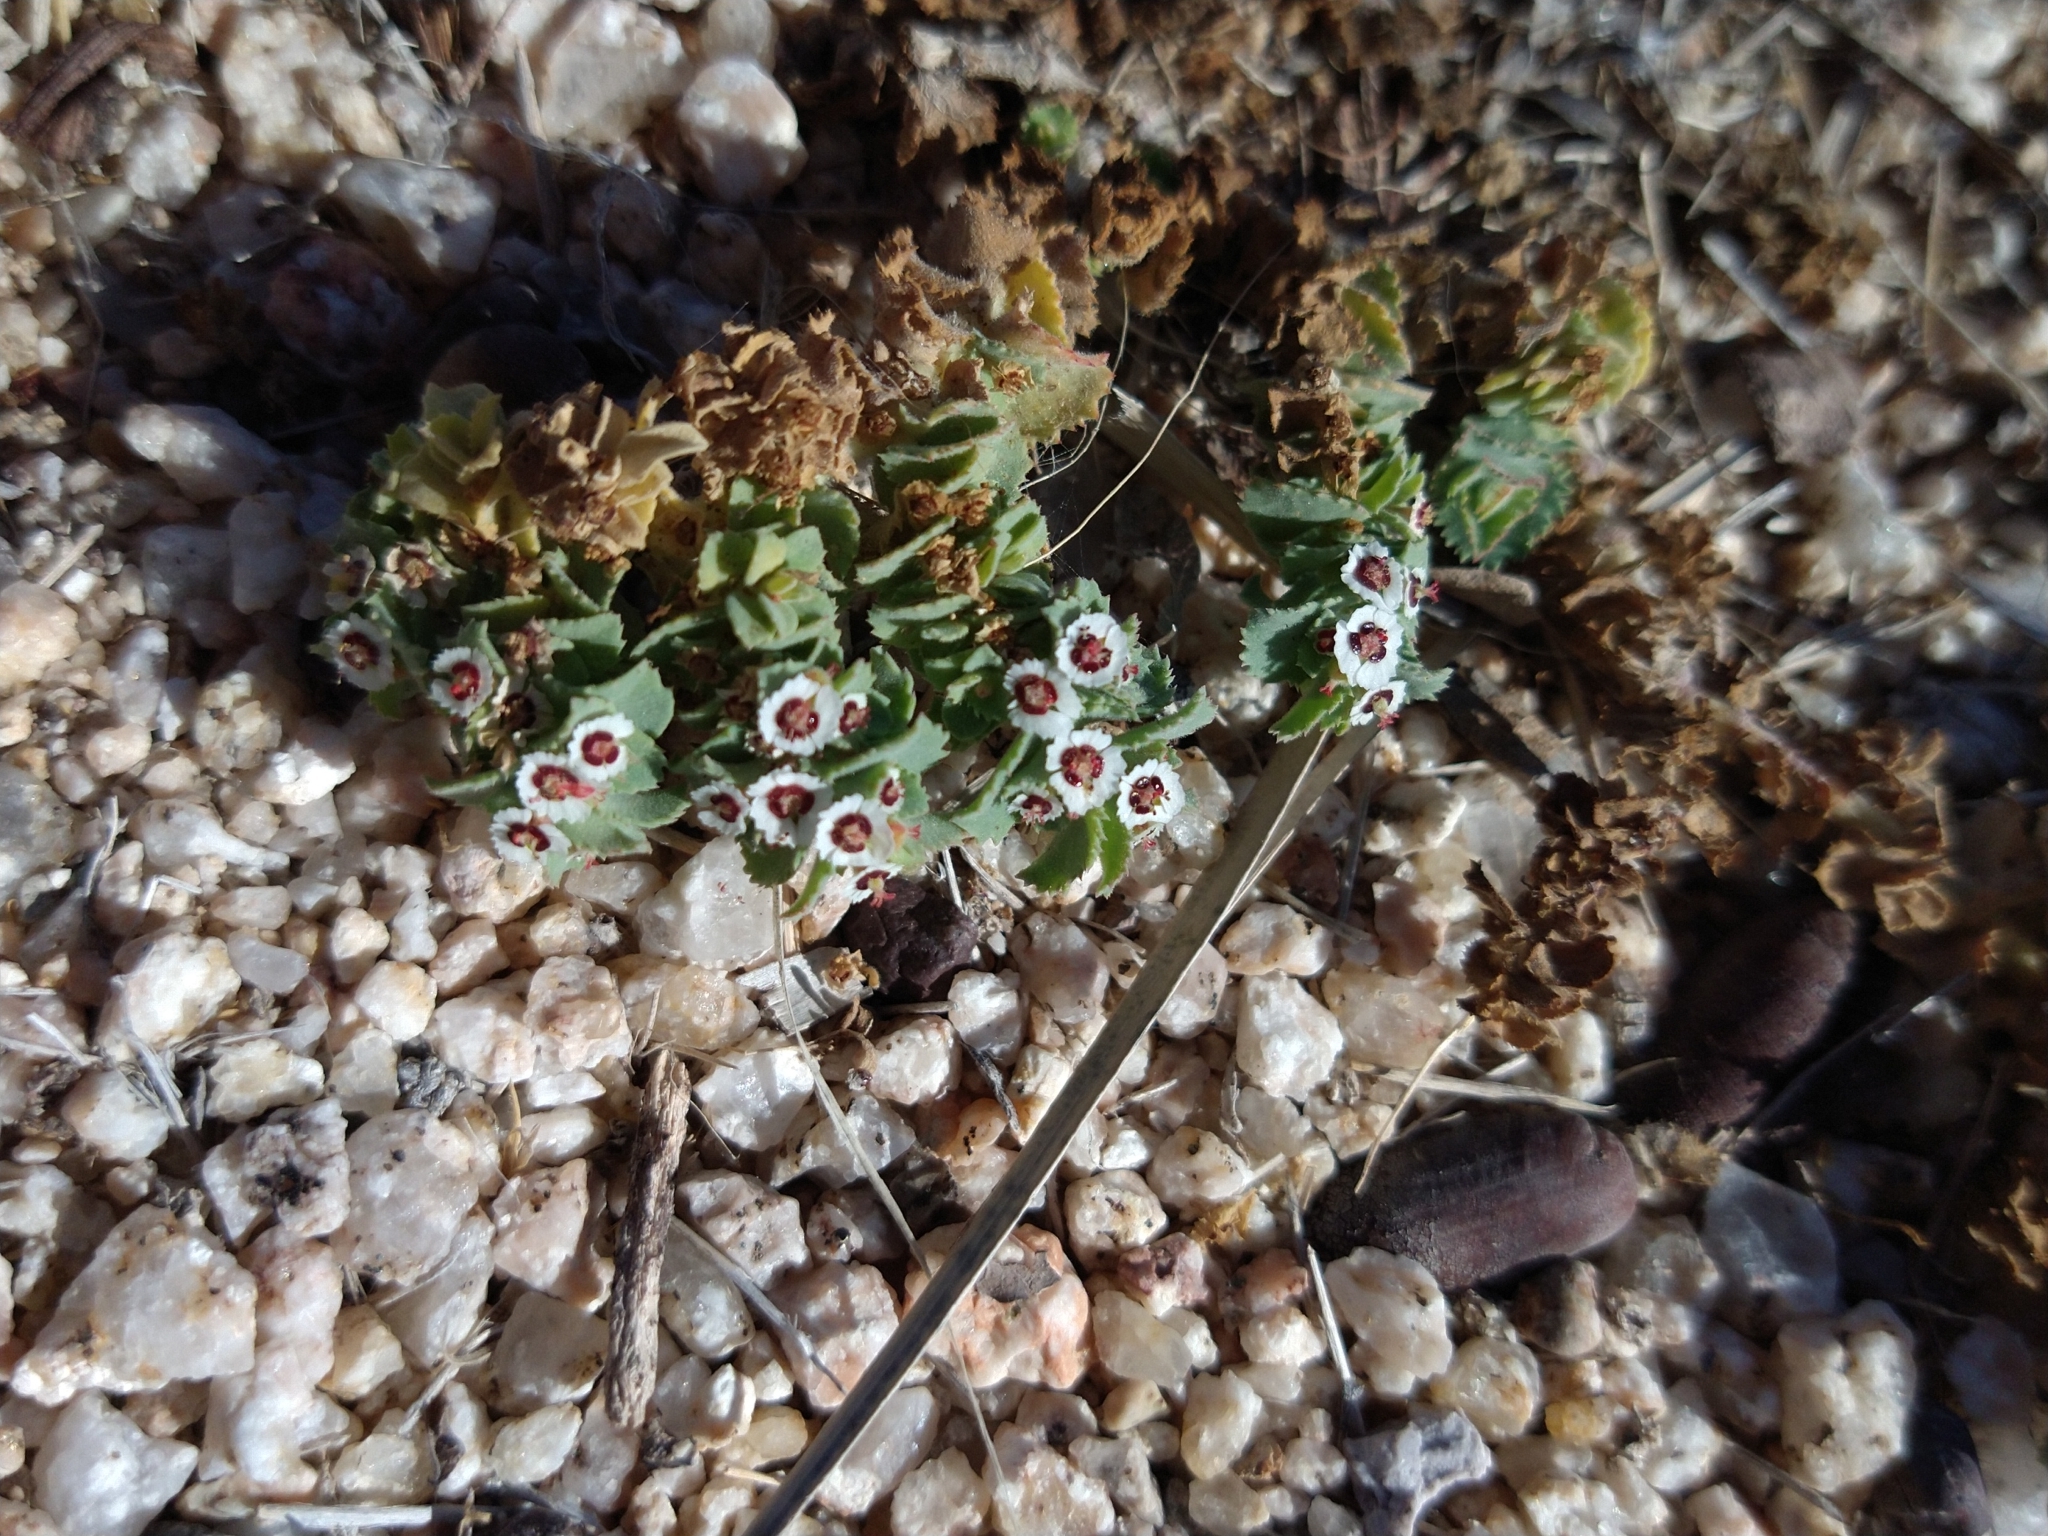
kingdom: Plantae
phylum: Tracheophyta
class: Magnoliopsida
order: Malpighiales
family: Euphorbiaceae
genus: Euphorbia
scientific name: Euphorbia leucophylla
